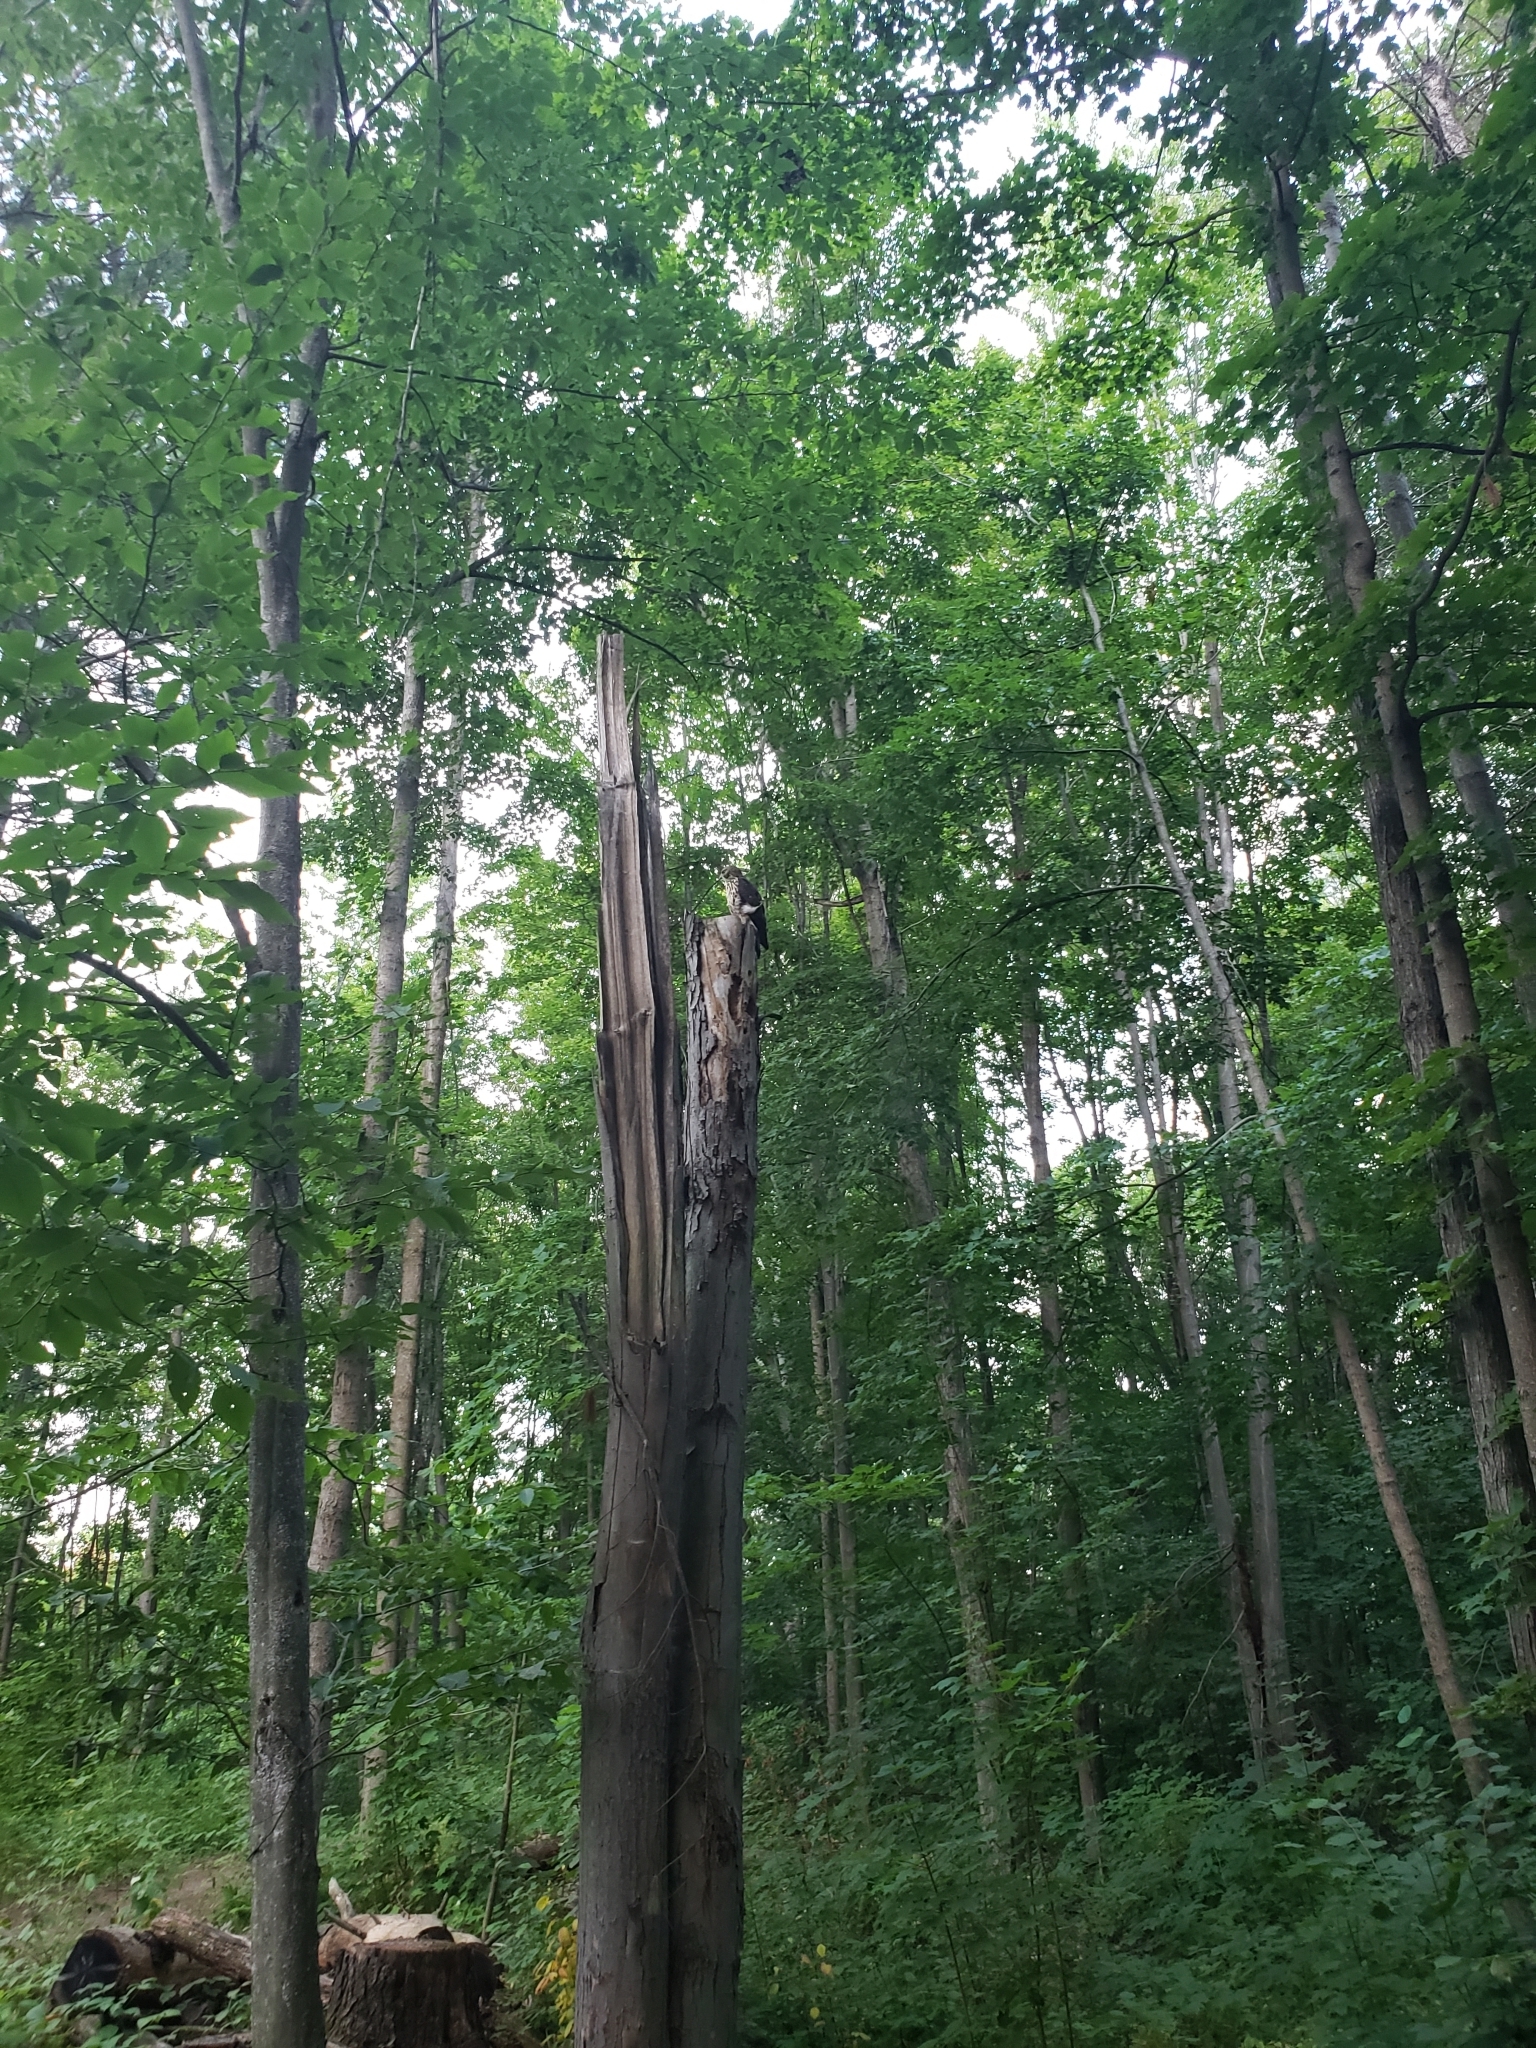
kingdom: Animalia
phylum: Chordata
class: Aves
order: Accipitriformes
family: Accipitridae
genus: Buteo
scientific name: Buteo platypterus
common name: Broad-winged hawk
